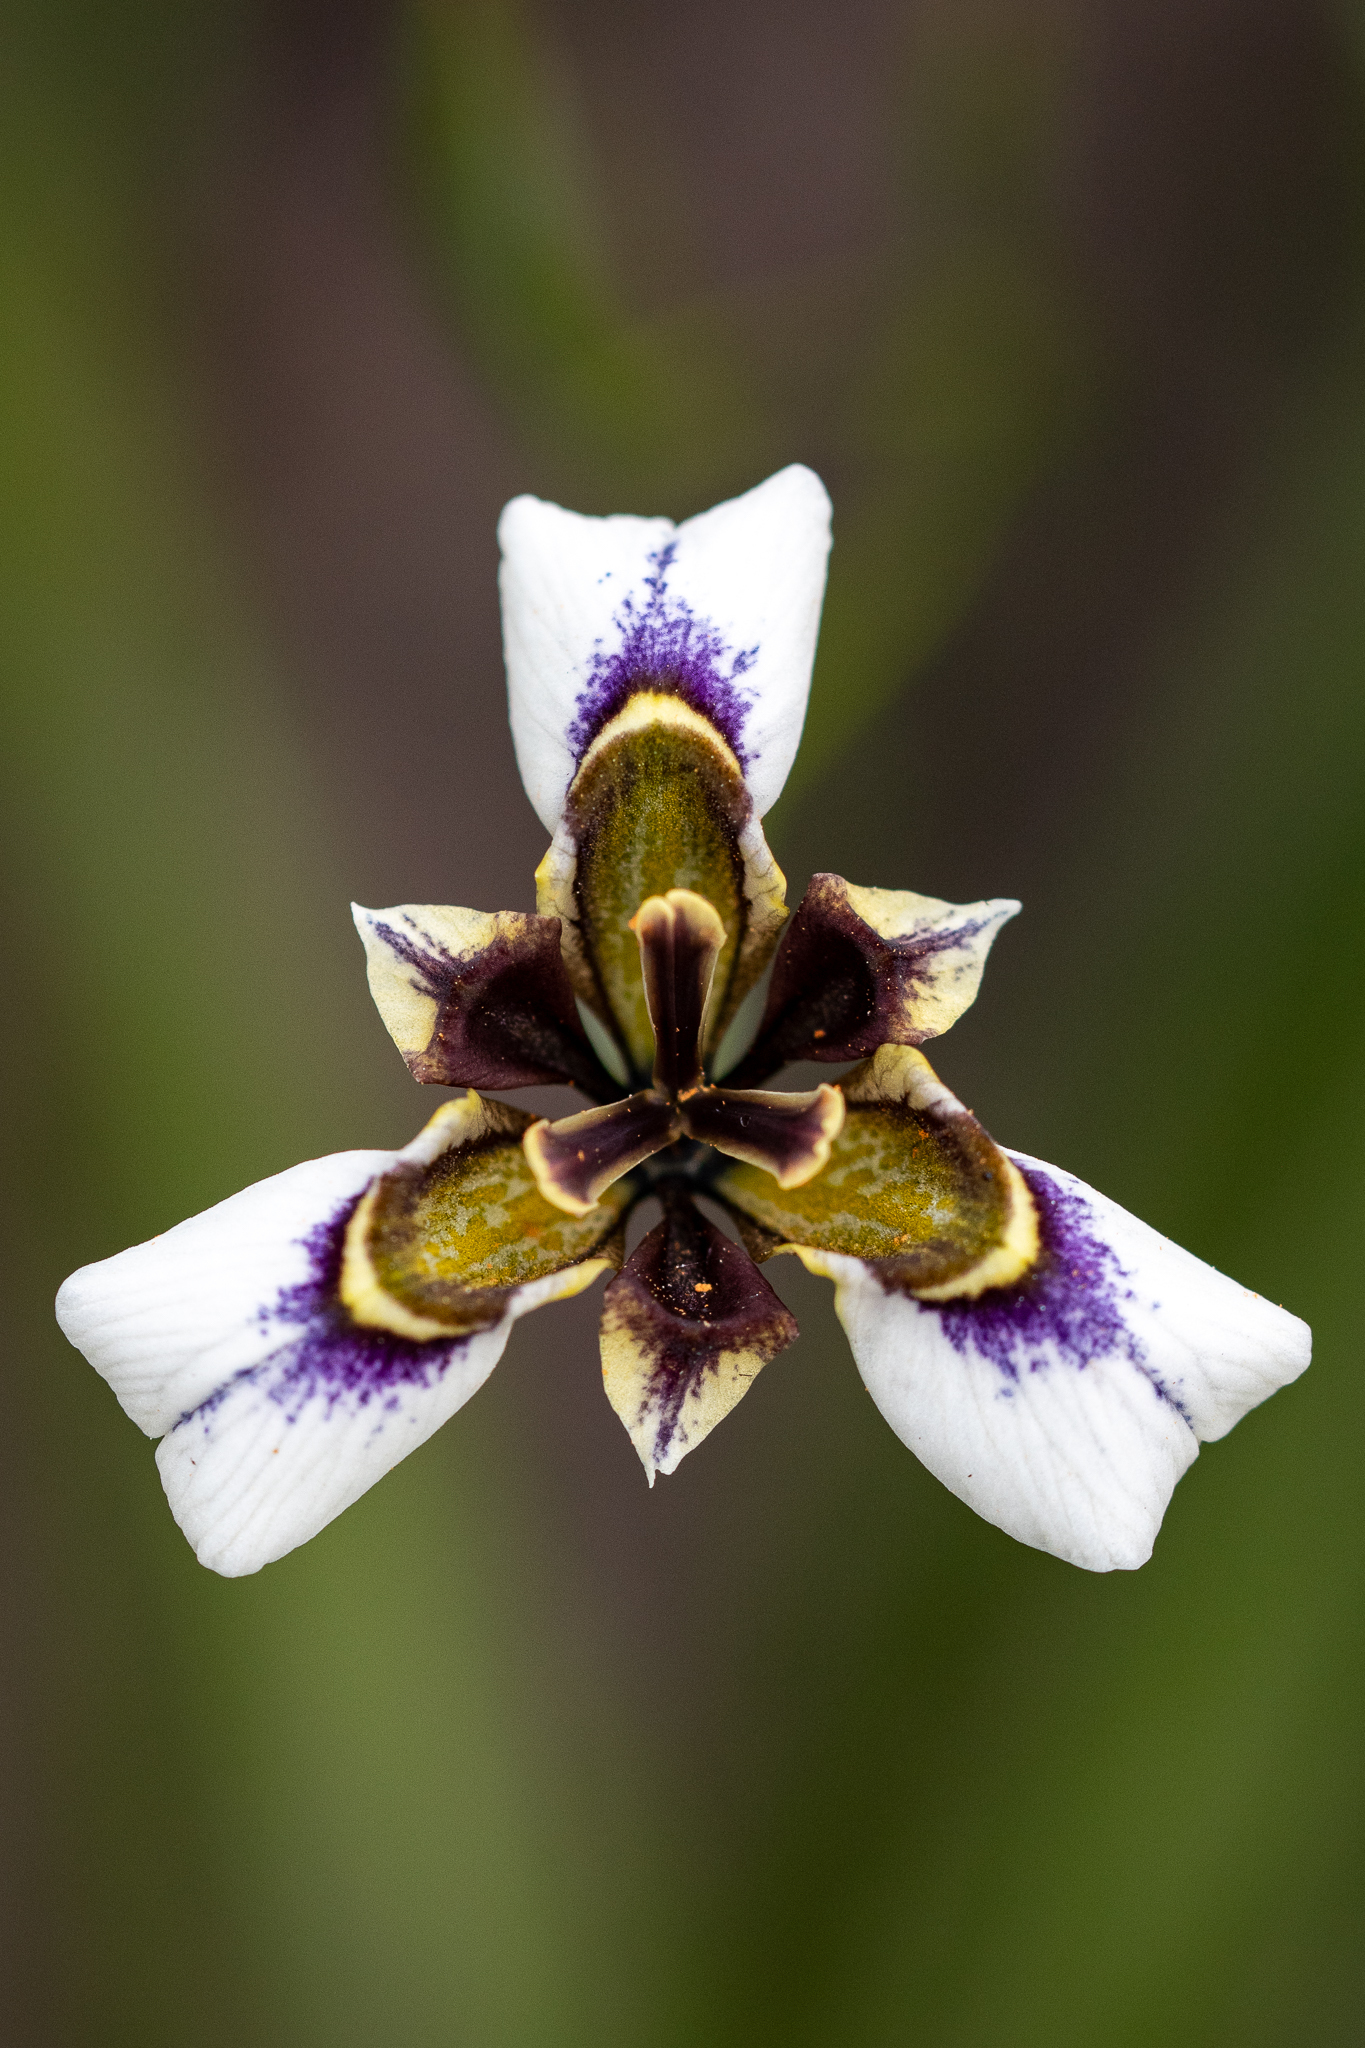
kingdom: Plantae
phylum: Tracheophyta
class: Liliopsida
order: Asparagales
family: Iridaceae
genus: Moraea
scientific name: Moraea lurida
